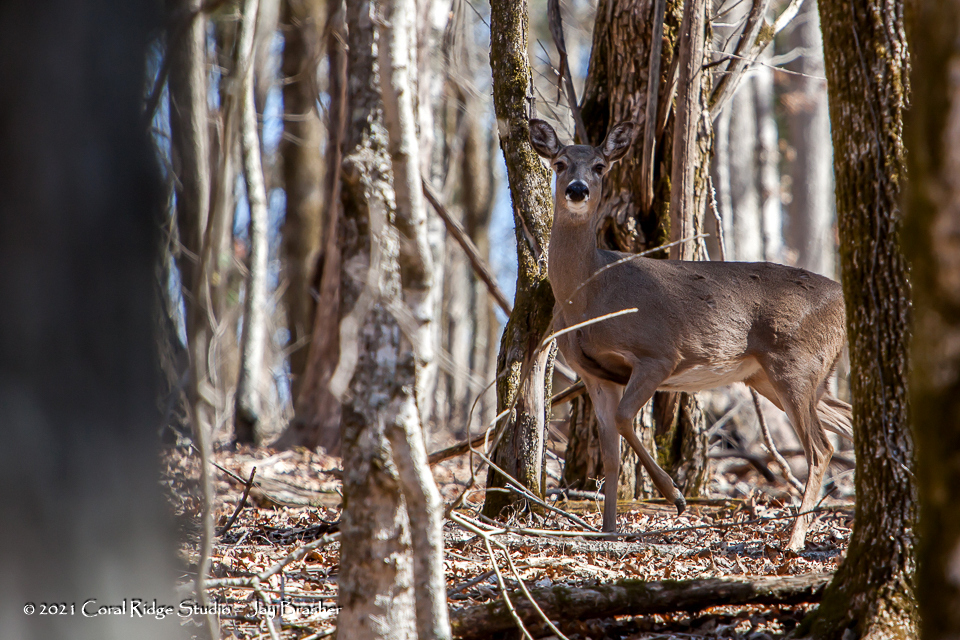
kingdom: Animalia
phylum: Chordata
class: Mammalia
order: Artiodactyla
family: Cervidae
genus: Odocoileus
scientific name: Odocoileus virginianus
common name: White-tailed deer
